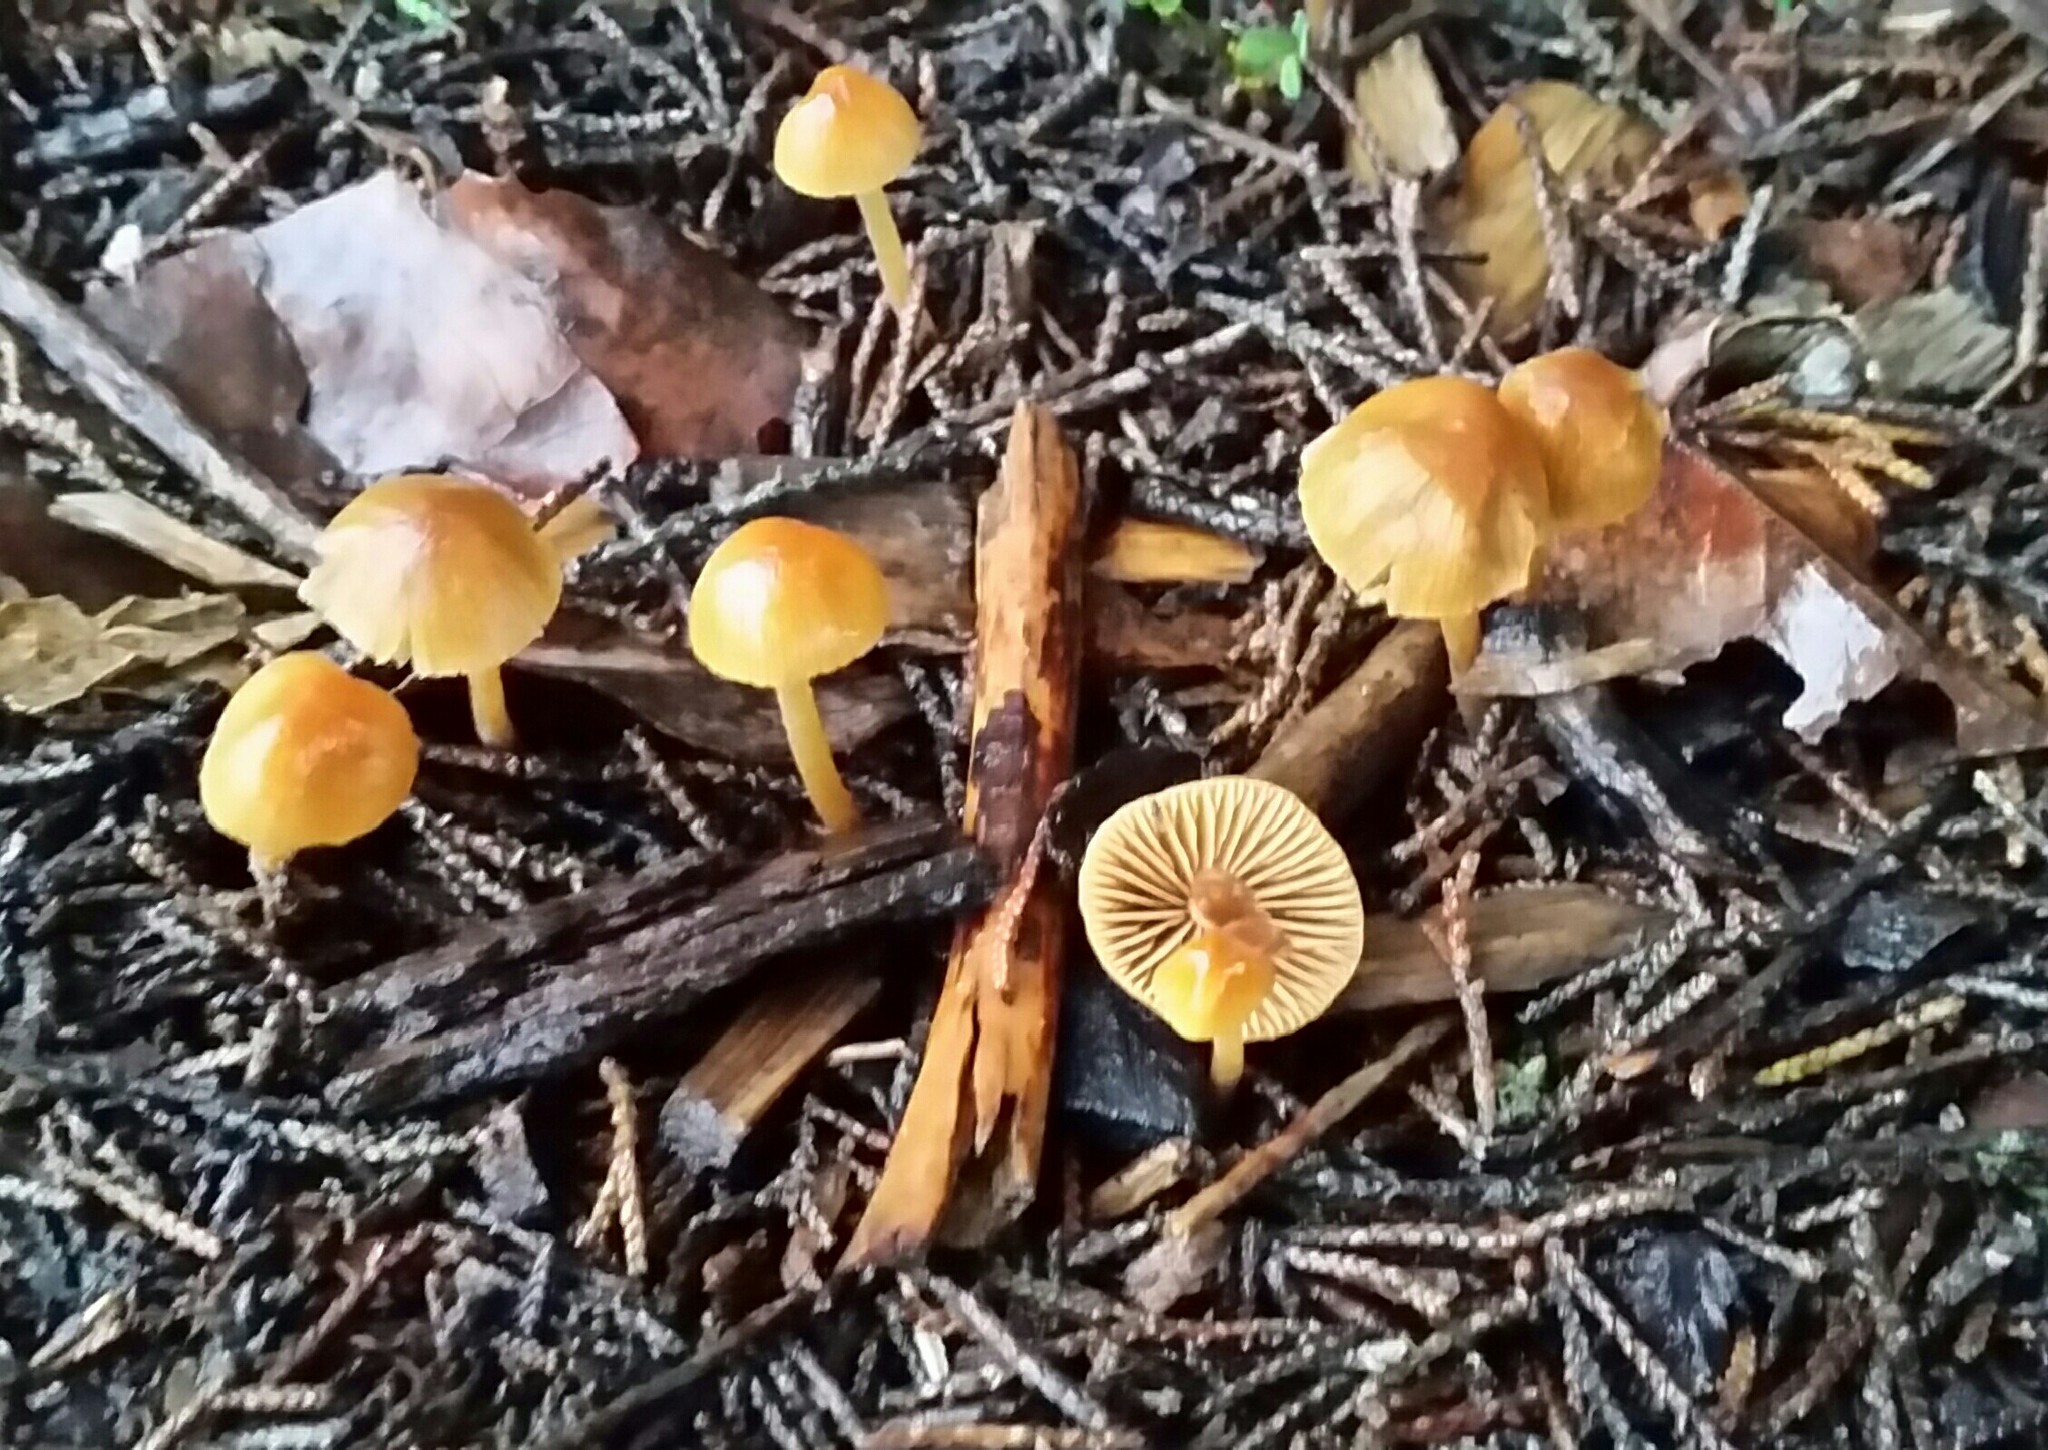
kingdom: Fungi
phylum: Basidiomycota
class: Agaricomycetes
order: Agaricales
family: Hymenogastraceae
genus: Galerina
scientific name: Galerina badipes
